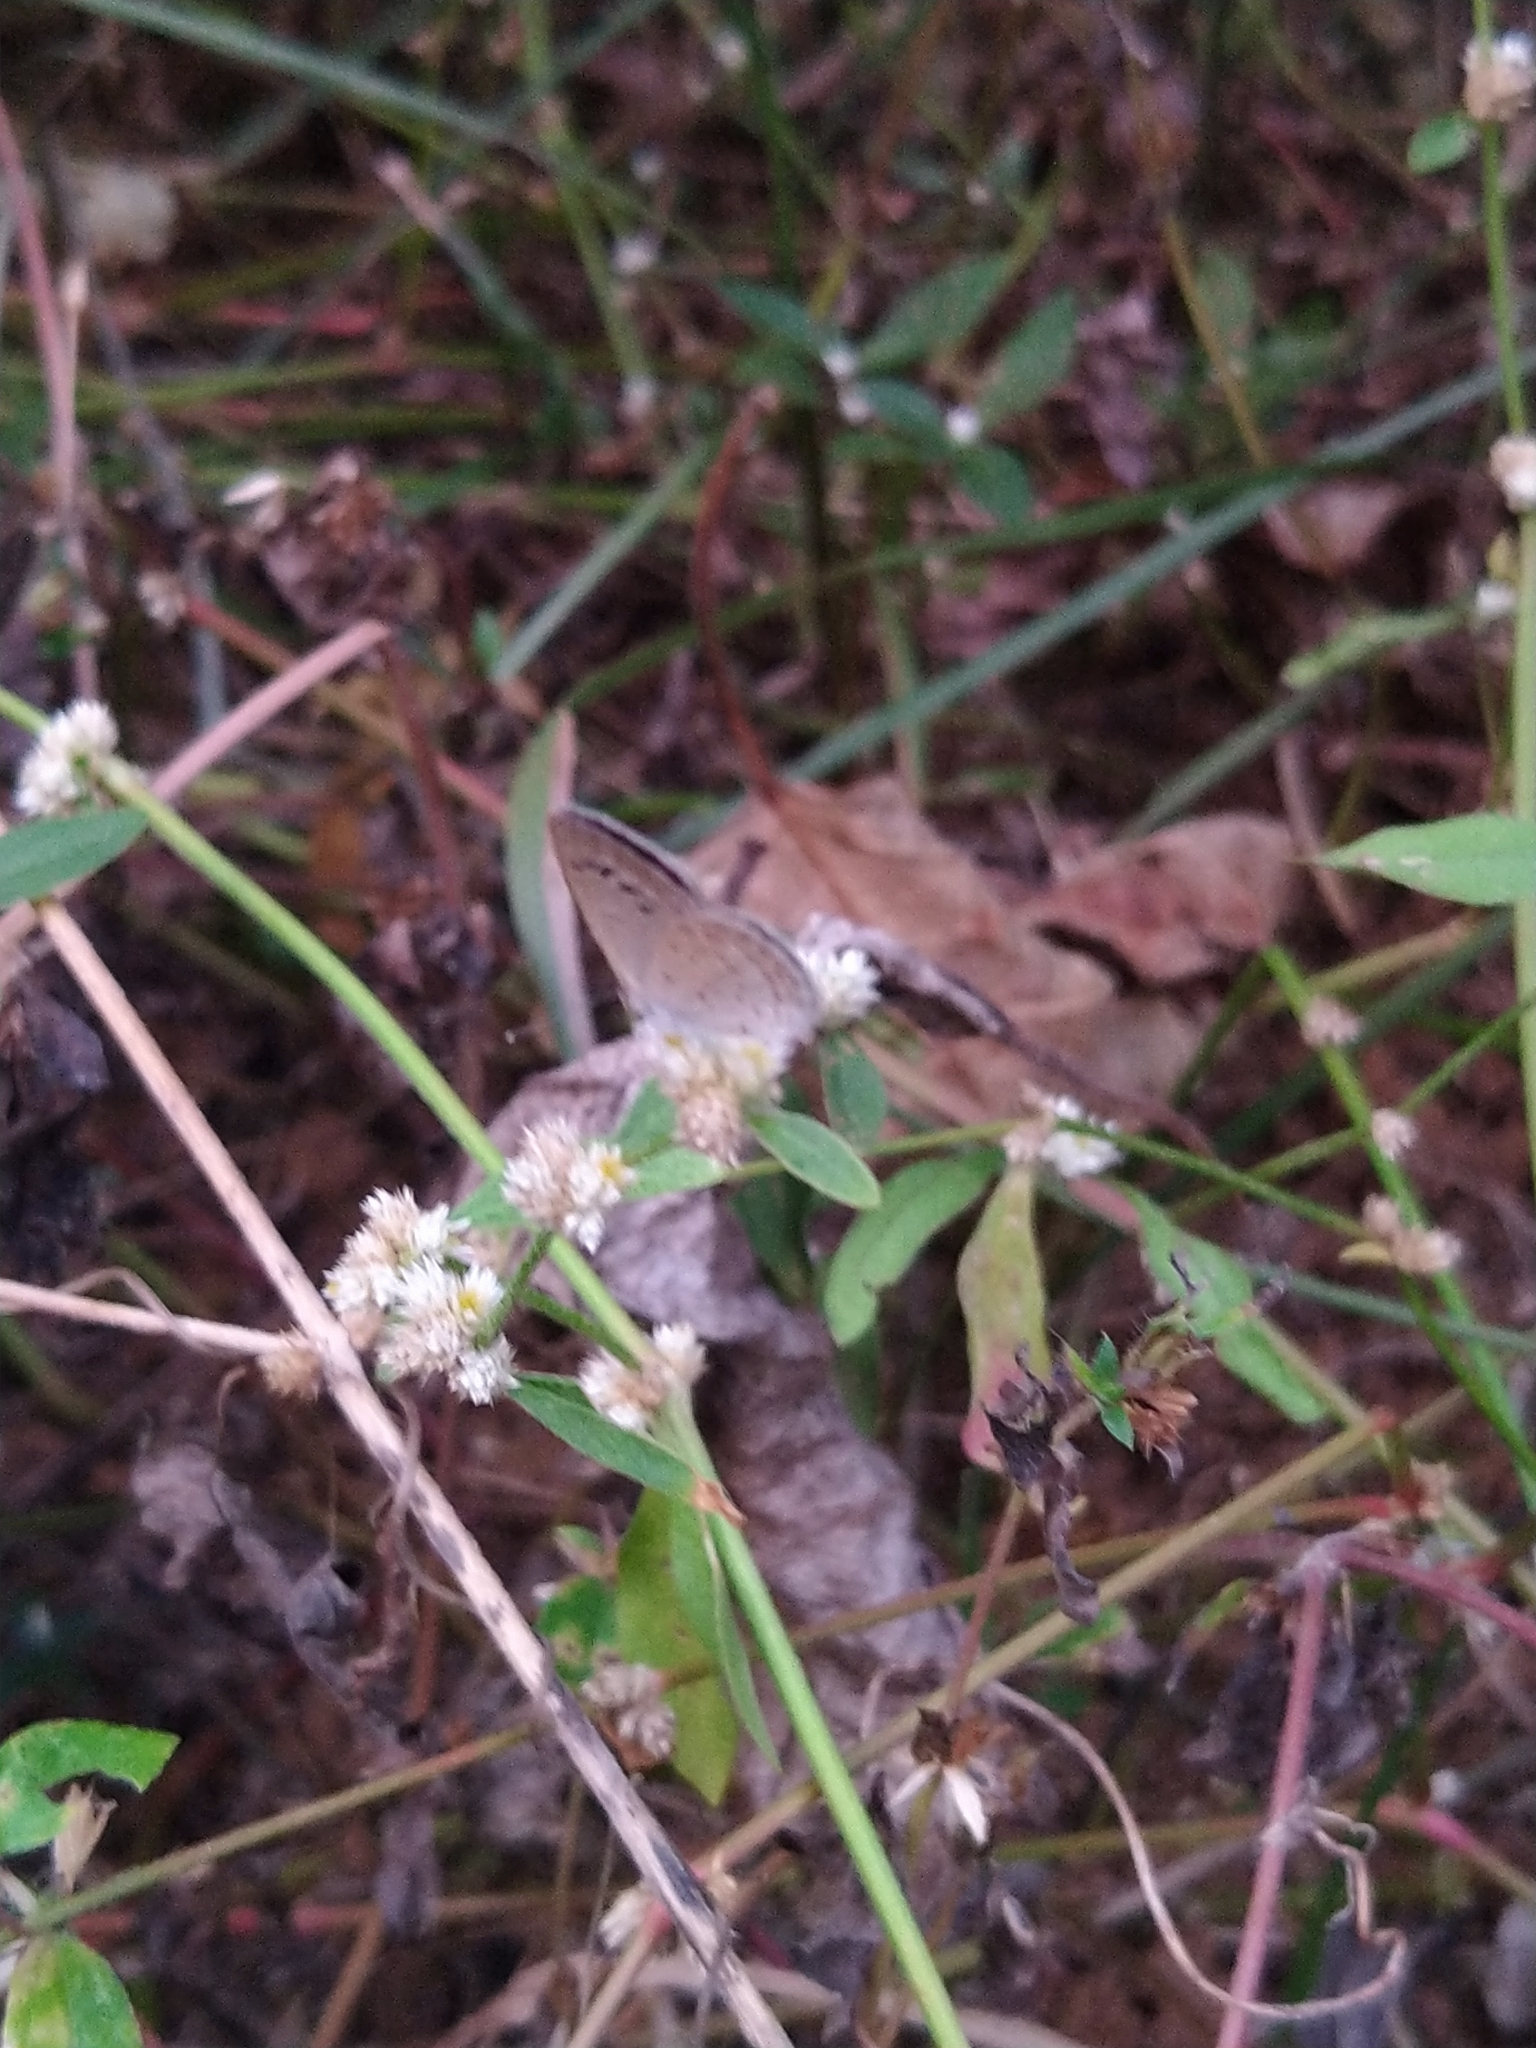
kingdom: Animalia
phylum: Arthropoda
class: Insecta
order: Lepidoptera
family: Lycaenidae
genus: Zizina
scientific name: Zizina otis
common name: Lesser grass blue
